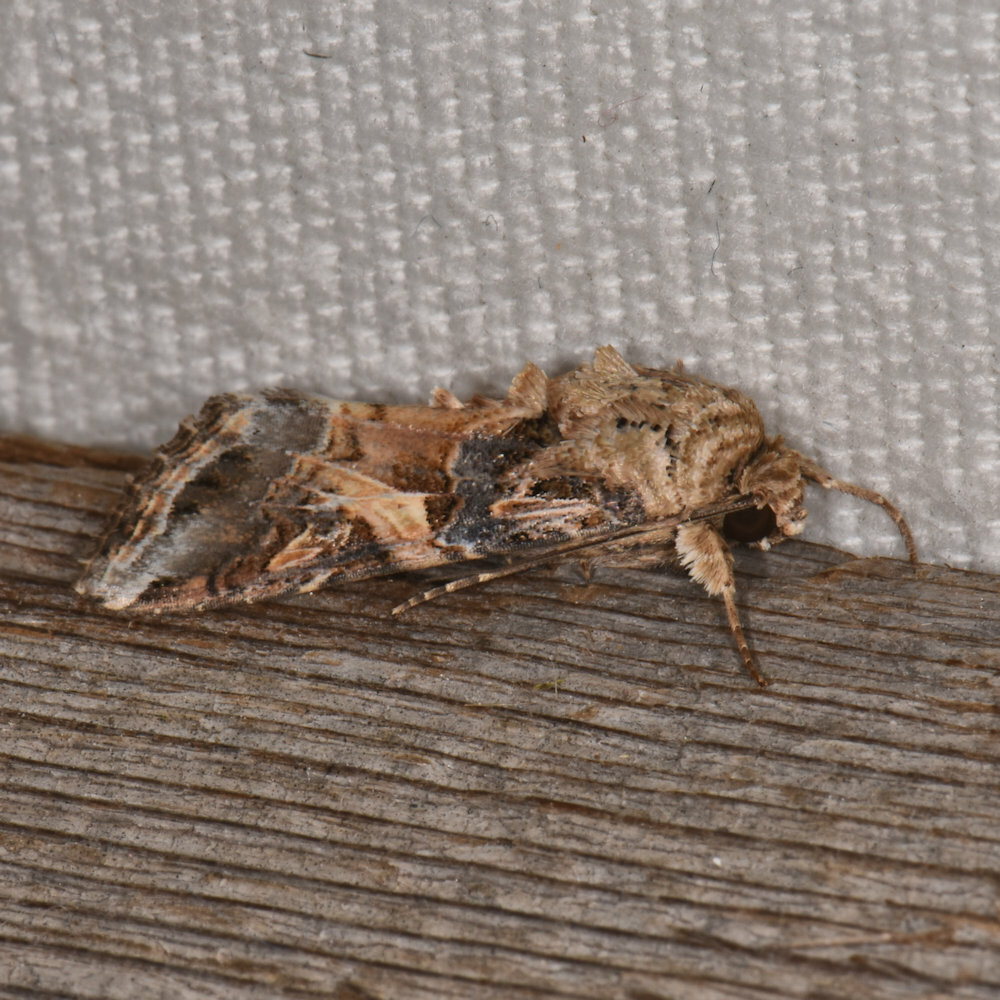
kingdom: Animalia
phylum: Arthropoda
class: Insecta
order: Lepidoptera
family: Noctuidae
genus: Spodoptera
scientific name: Spodoptera ornithogalli
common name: Yellow-striped armyworm
